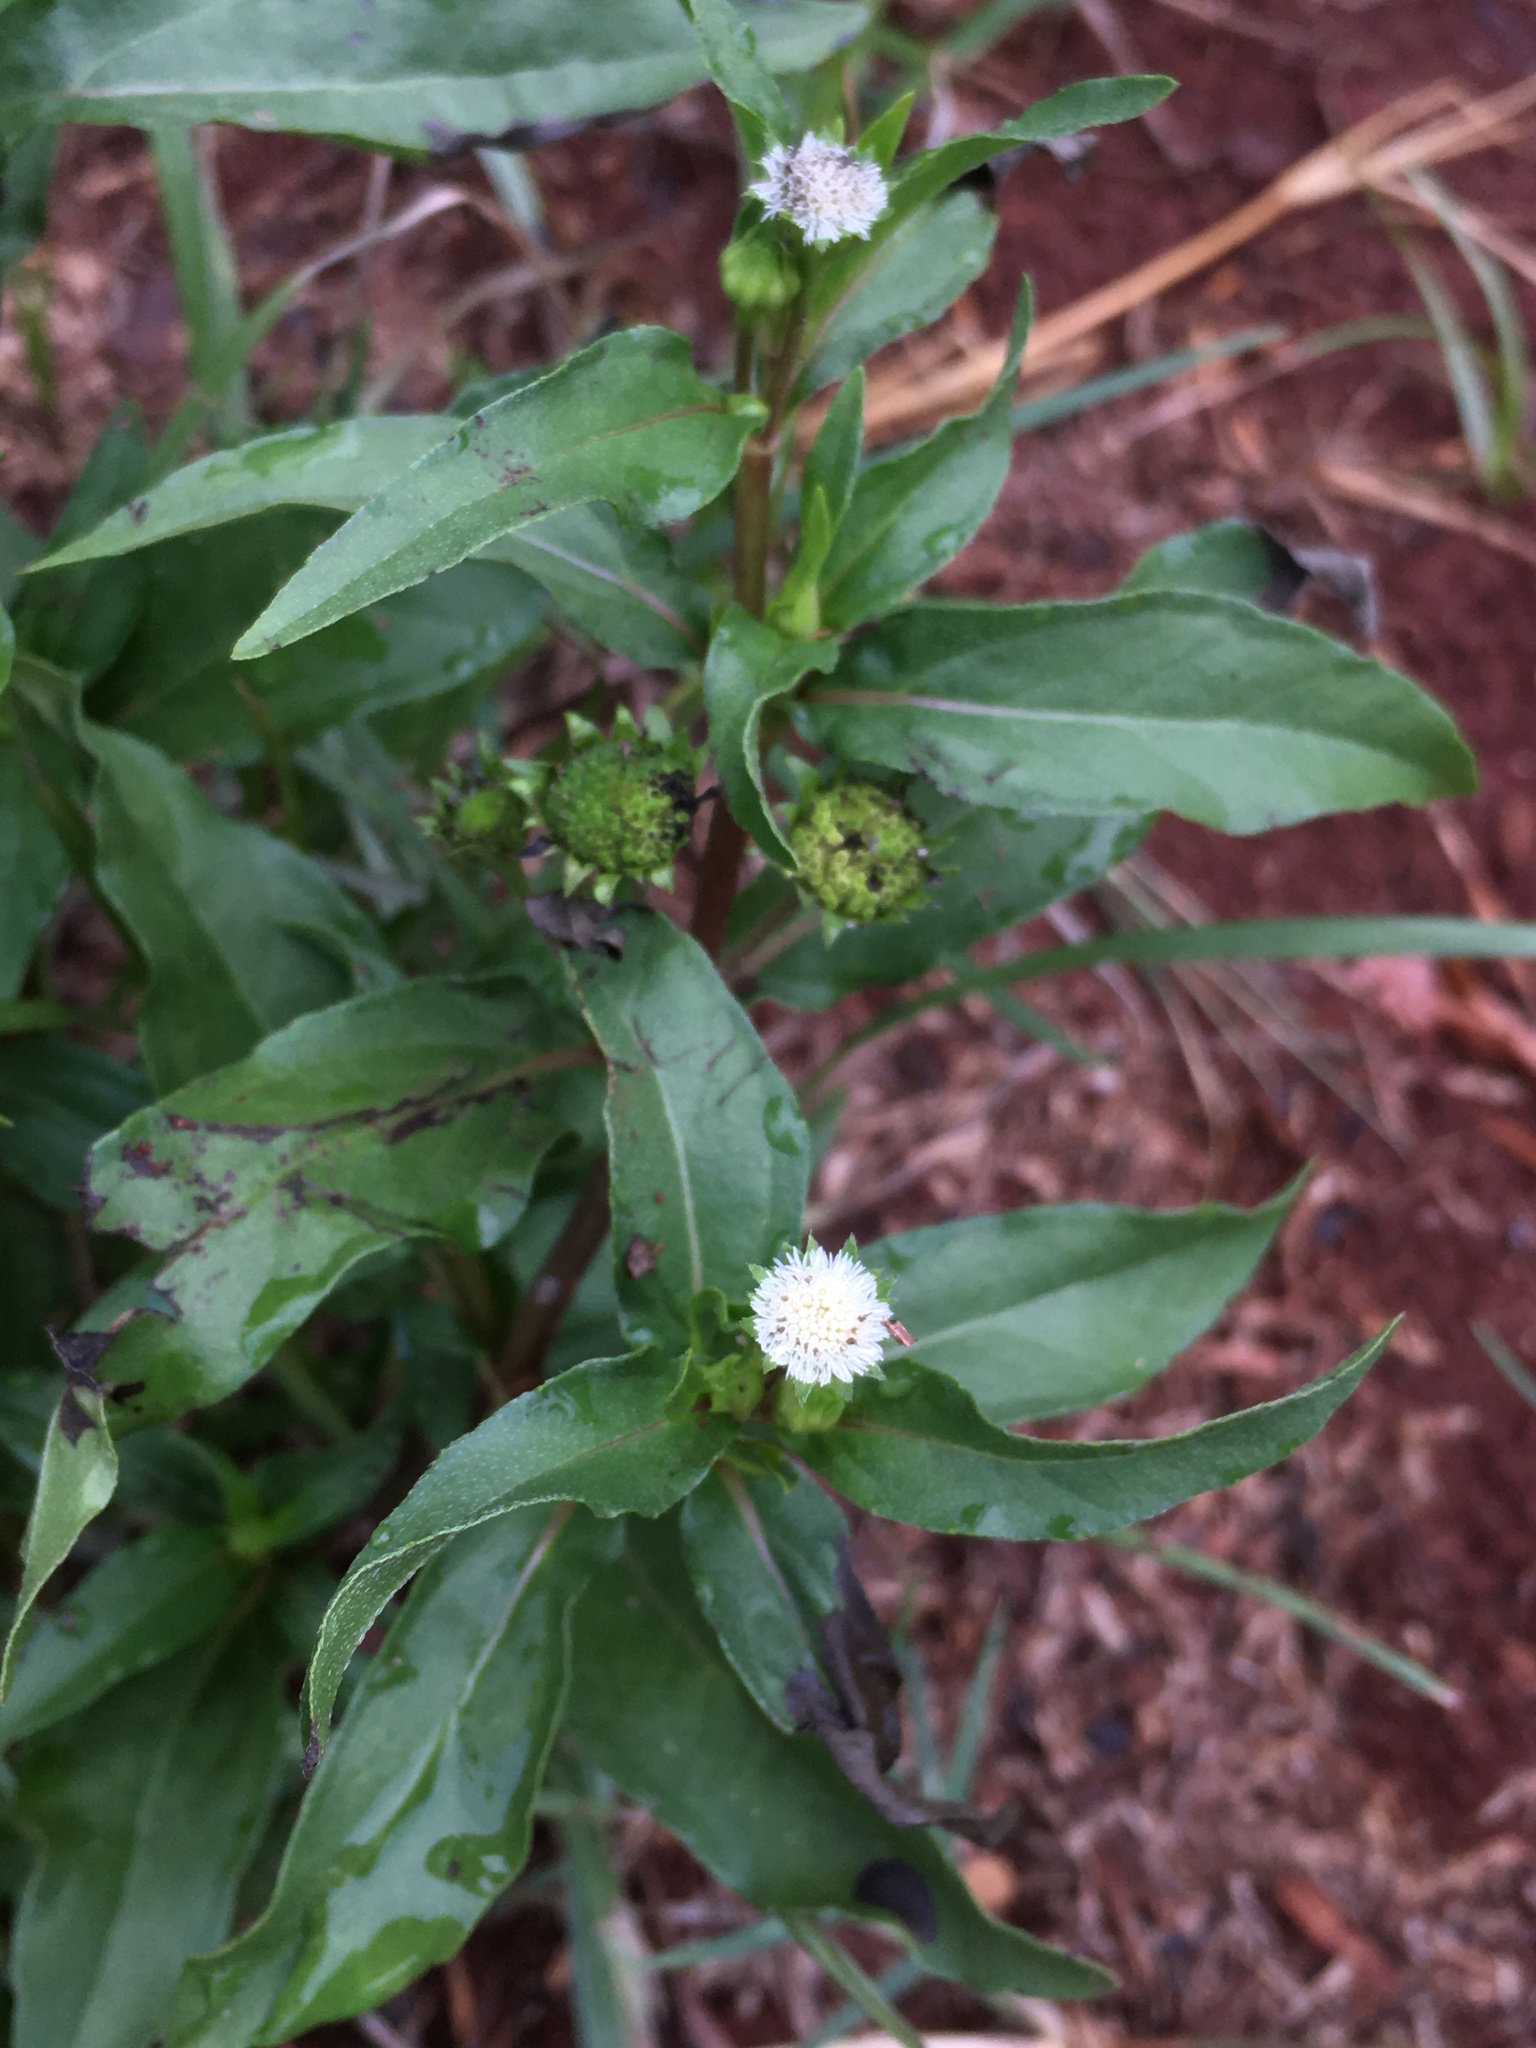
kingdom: Plantae
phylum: Tracheophyta
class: Magnoliopsida
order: Asterales
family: Asteraceae
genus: Eclipta
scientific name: Eclipta prostrata
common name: False daisy
